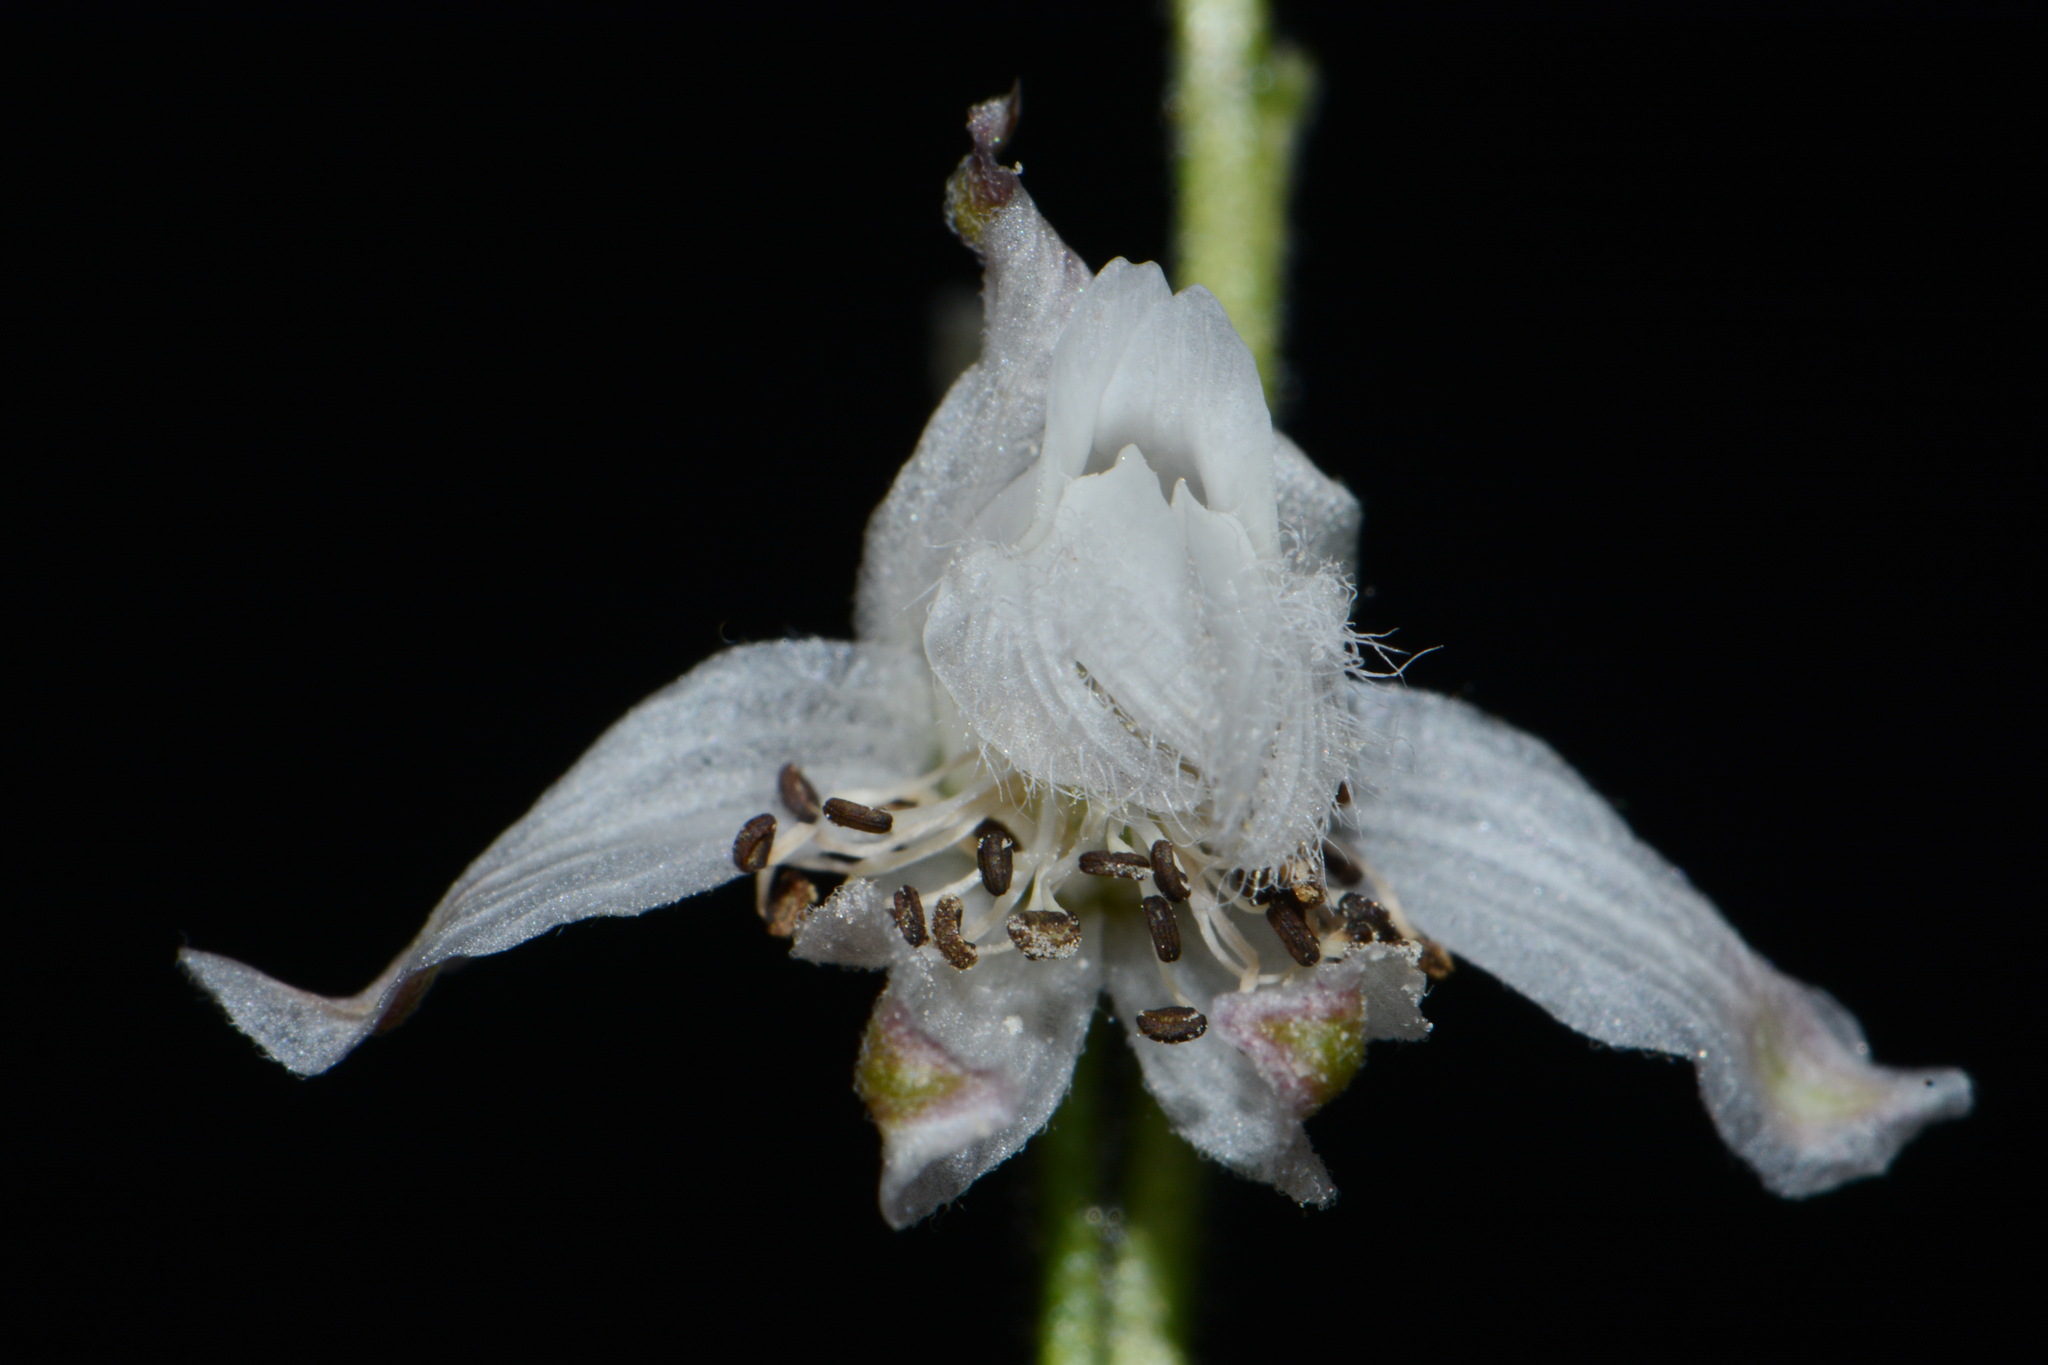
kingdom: Plantae
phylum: Tracheophyta
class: Magnoliopsida
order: Ranunculales
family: Ranunculaceae
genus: Delphinium
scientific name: Delphinium carolinianum
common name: Carolina larkspur
